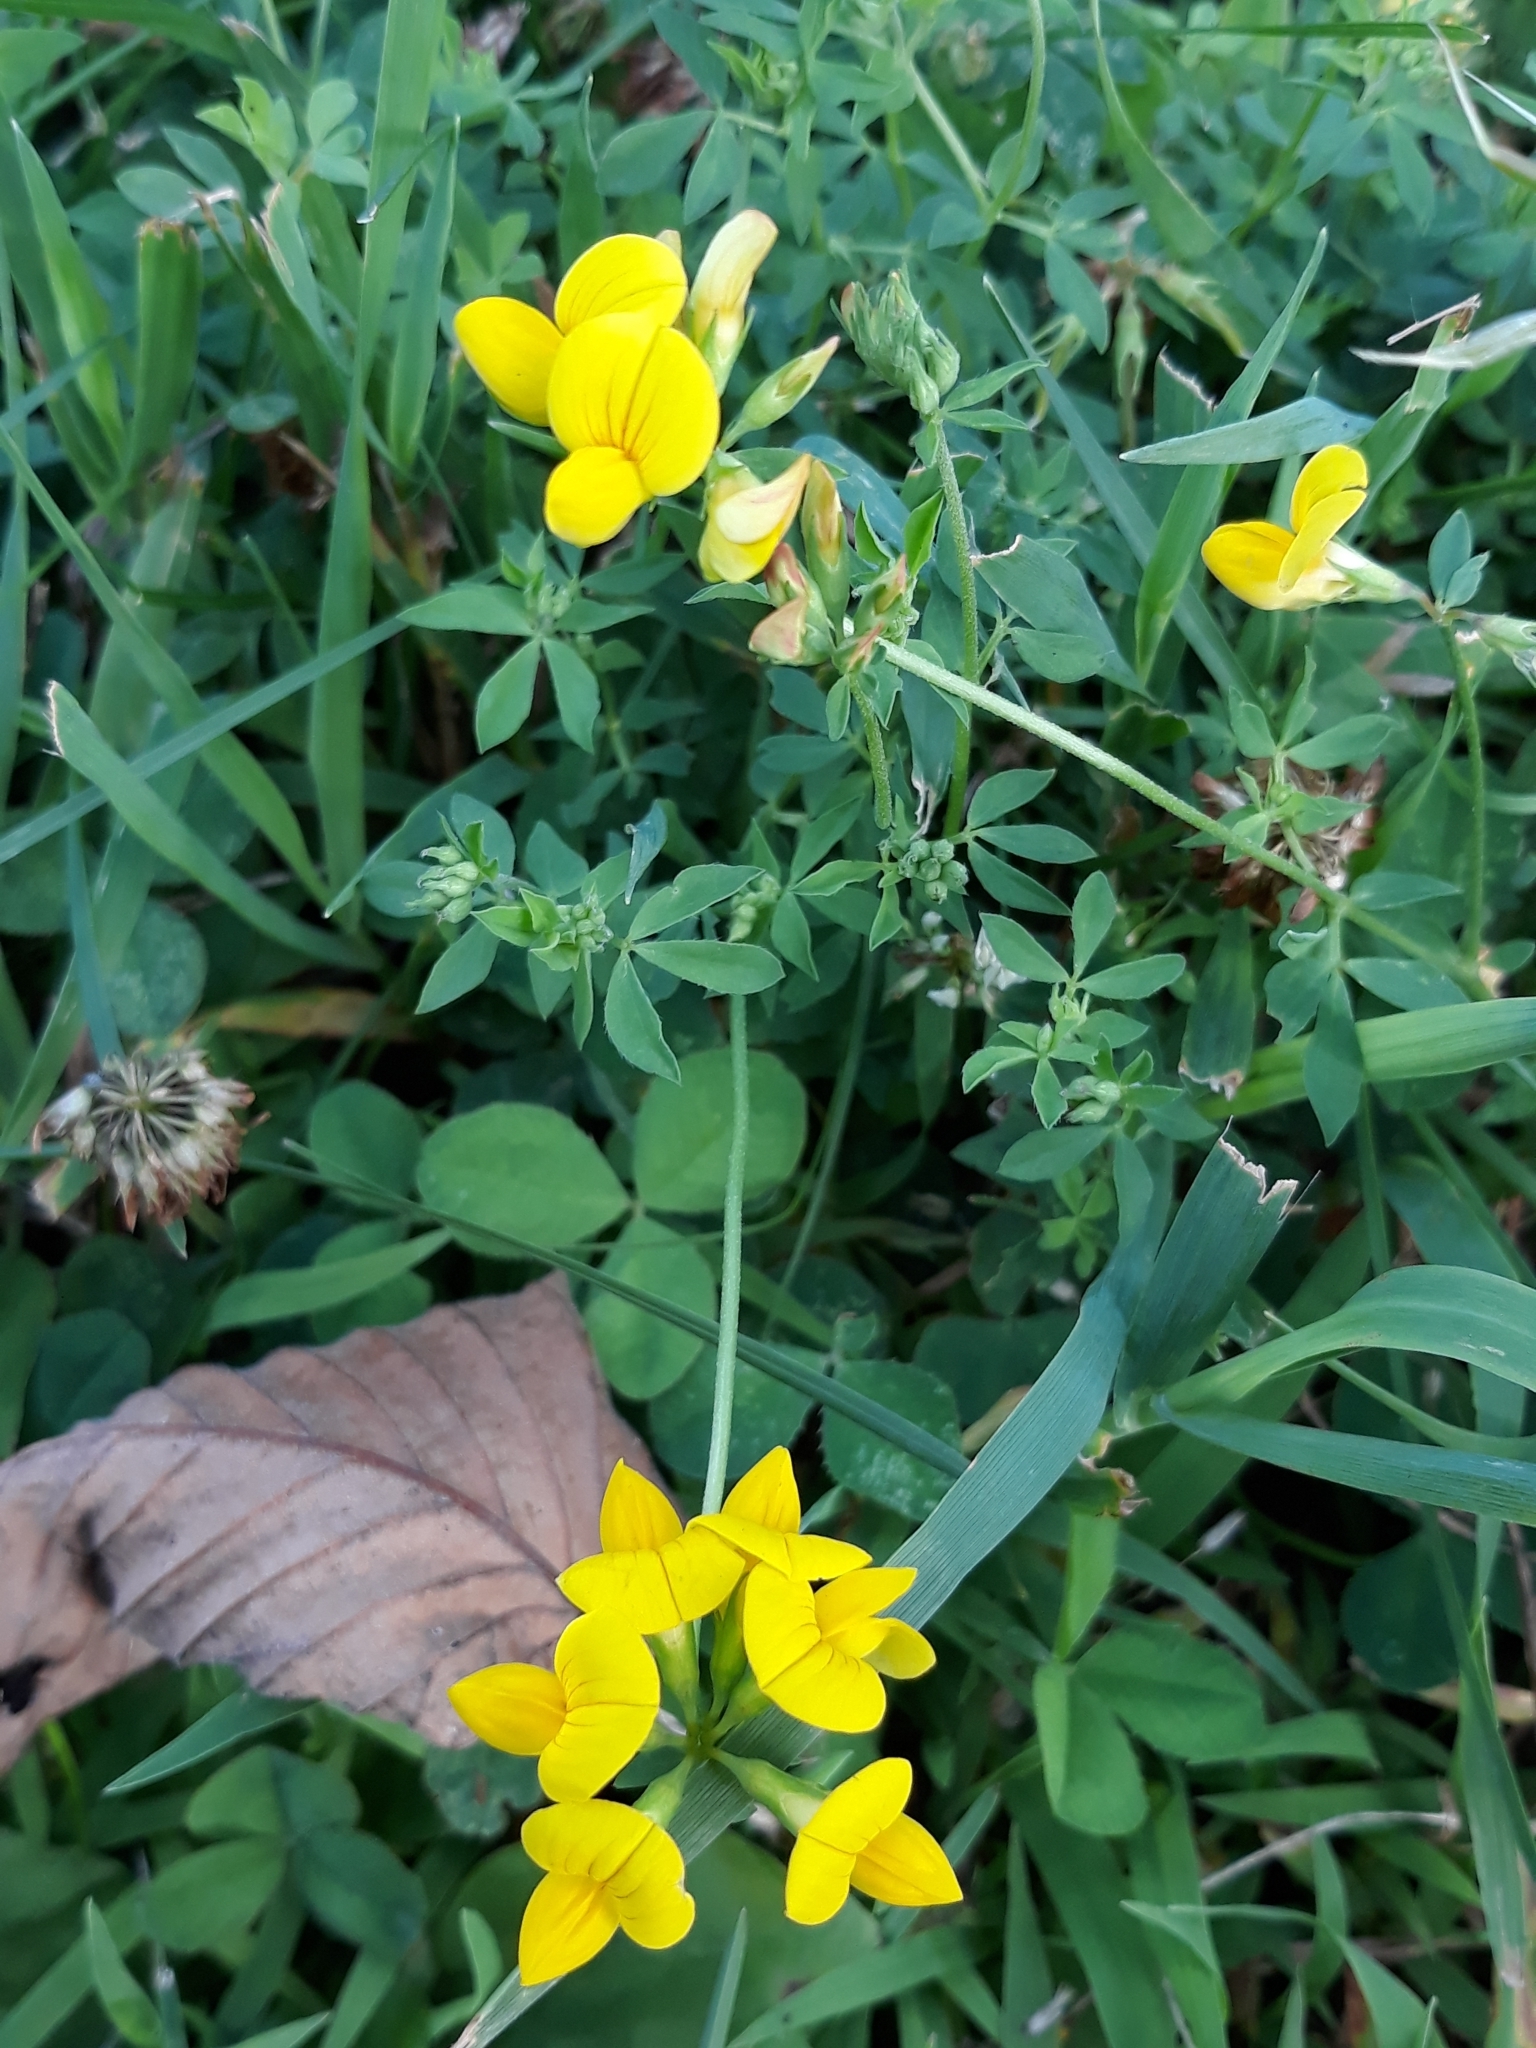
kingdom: Plantae
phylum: Tracheophyta
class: Magnoliopsida
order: Fabales
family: Fabaceae
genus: Lotus
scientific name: Lotus corniculatus
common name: Common bird's-foot-trefoil
